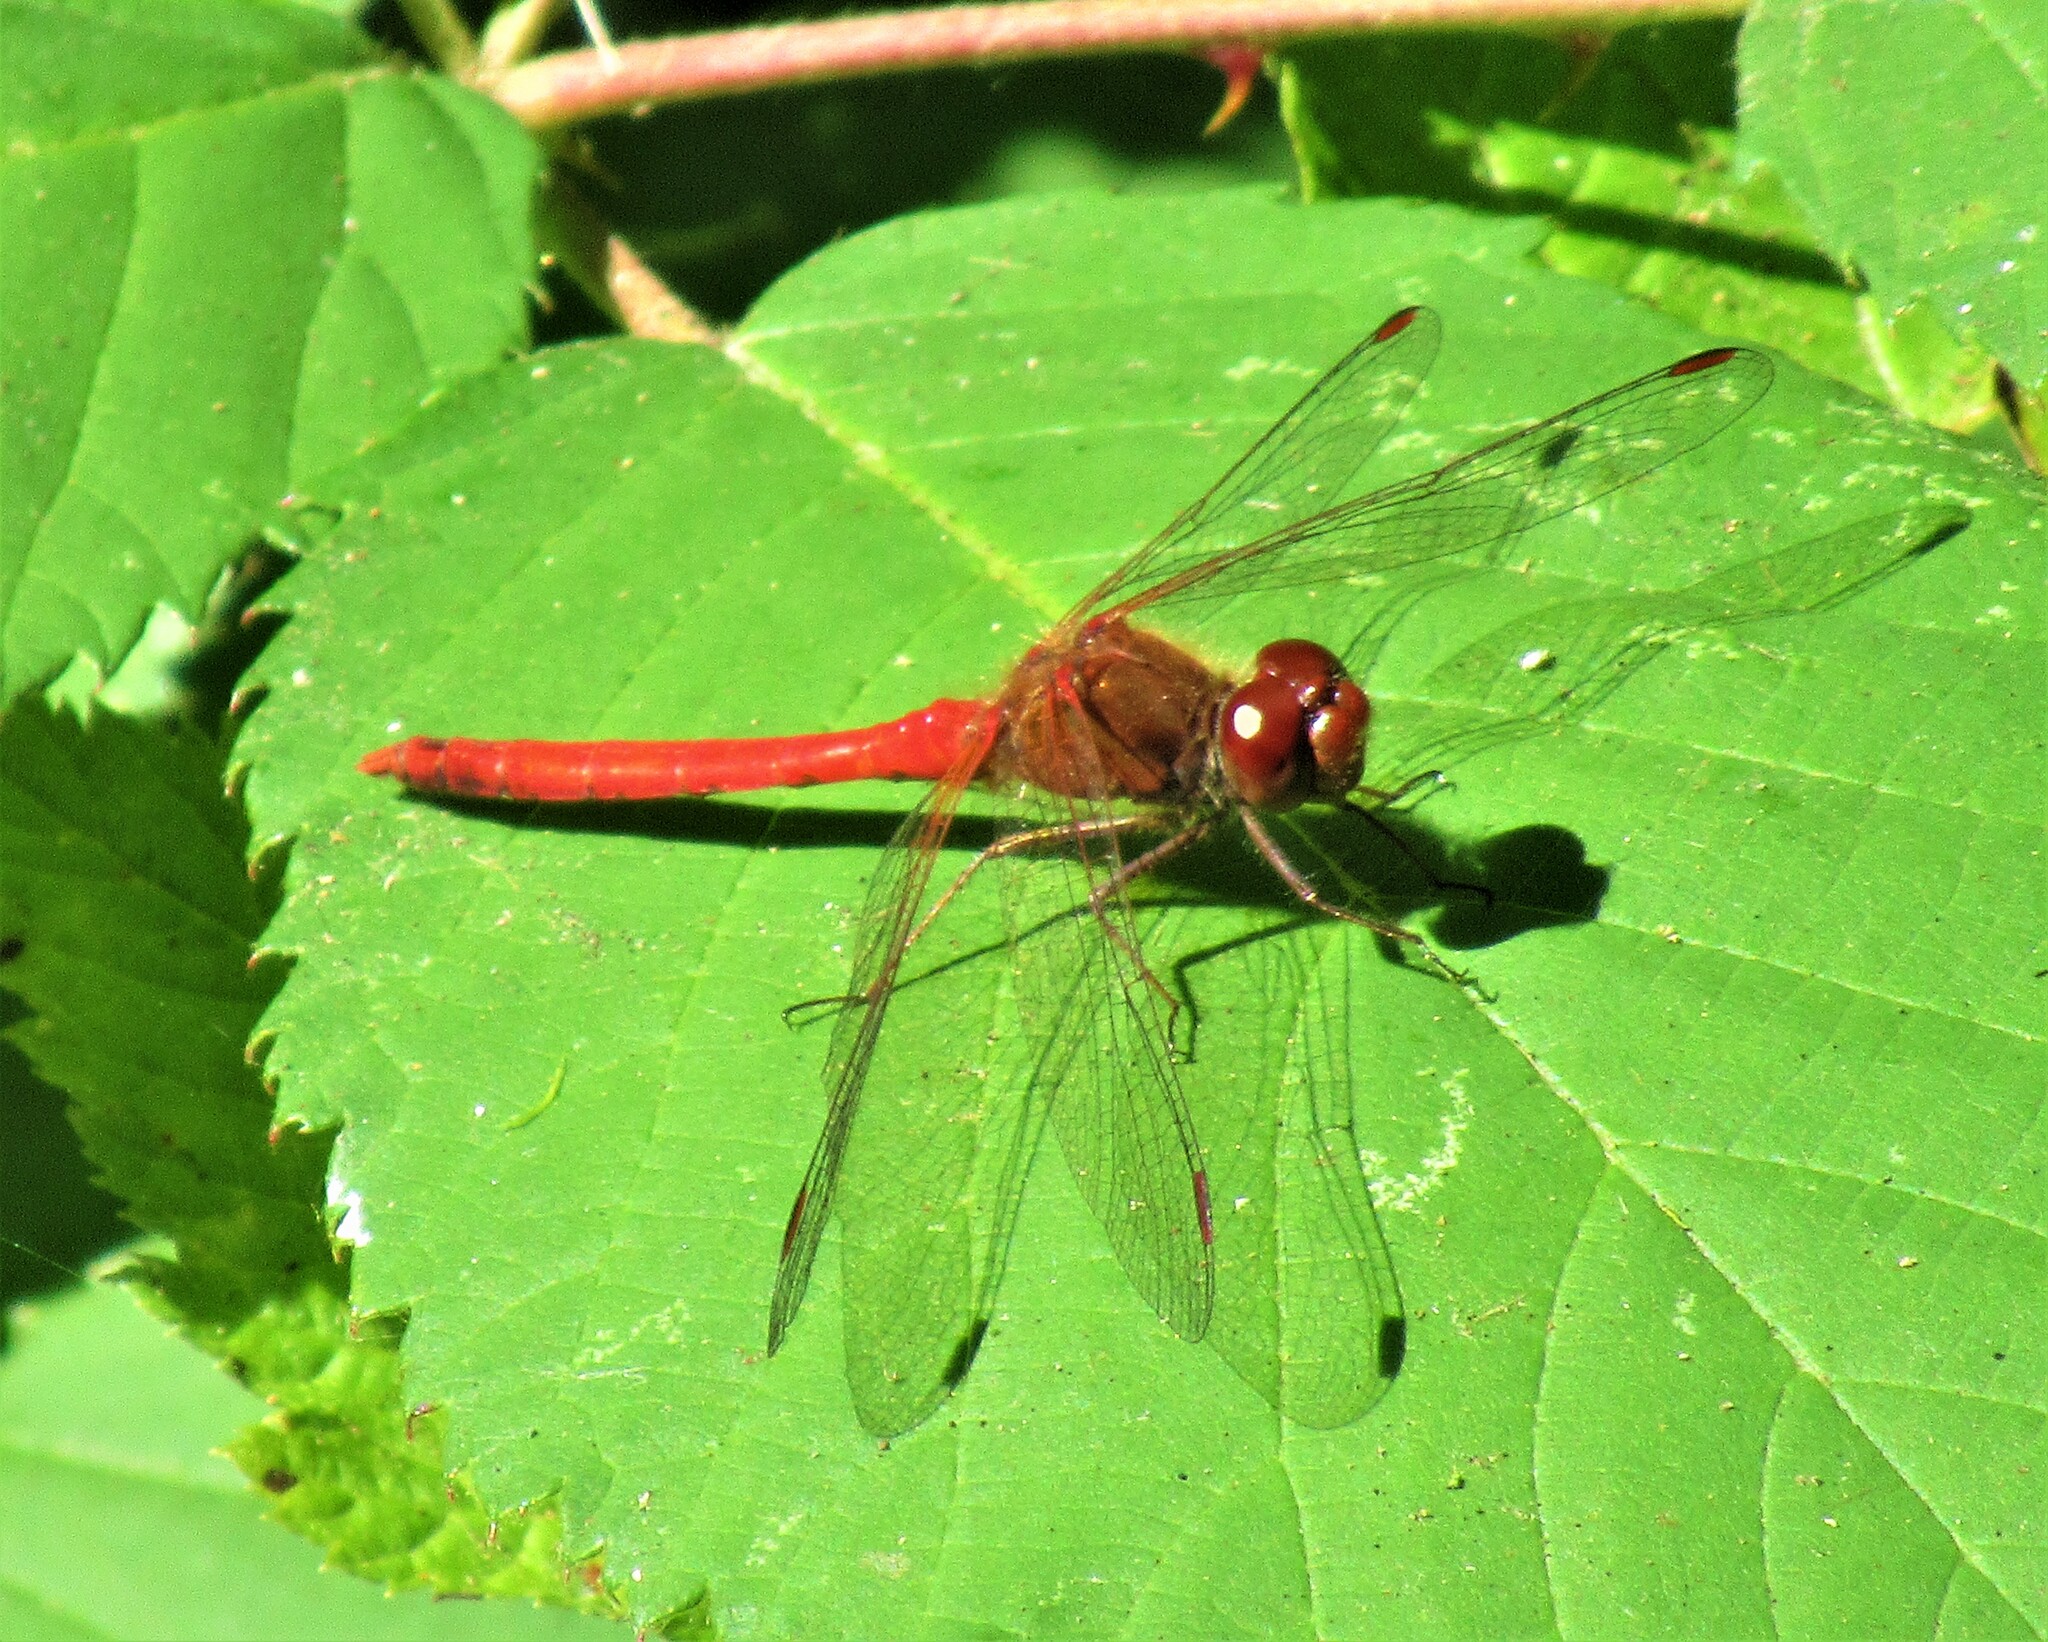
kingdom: Animalia
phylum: Arthropoda
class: Insecta
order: Odonata
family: Libellulidae
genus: Sympetrum
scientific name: Sympetrum vicinum
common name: Autumn meadowhawk
